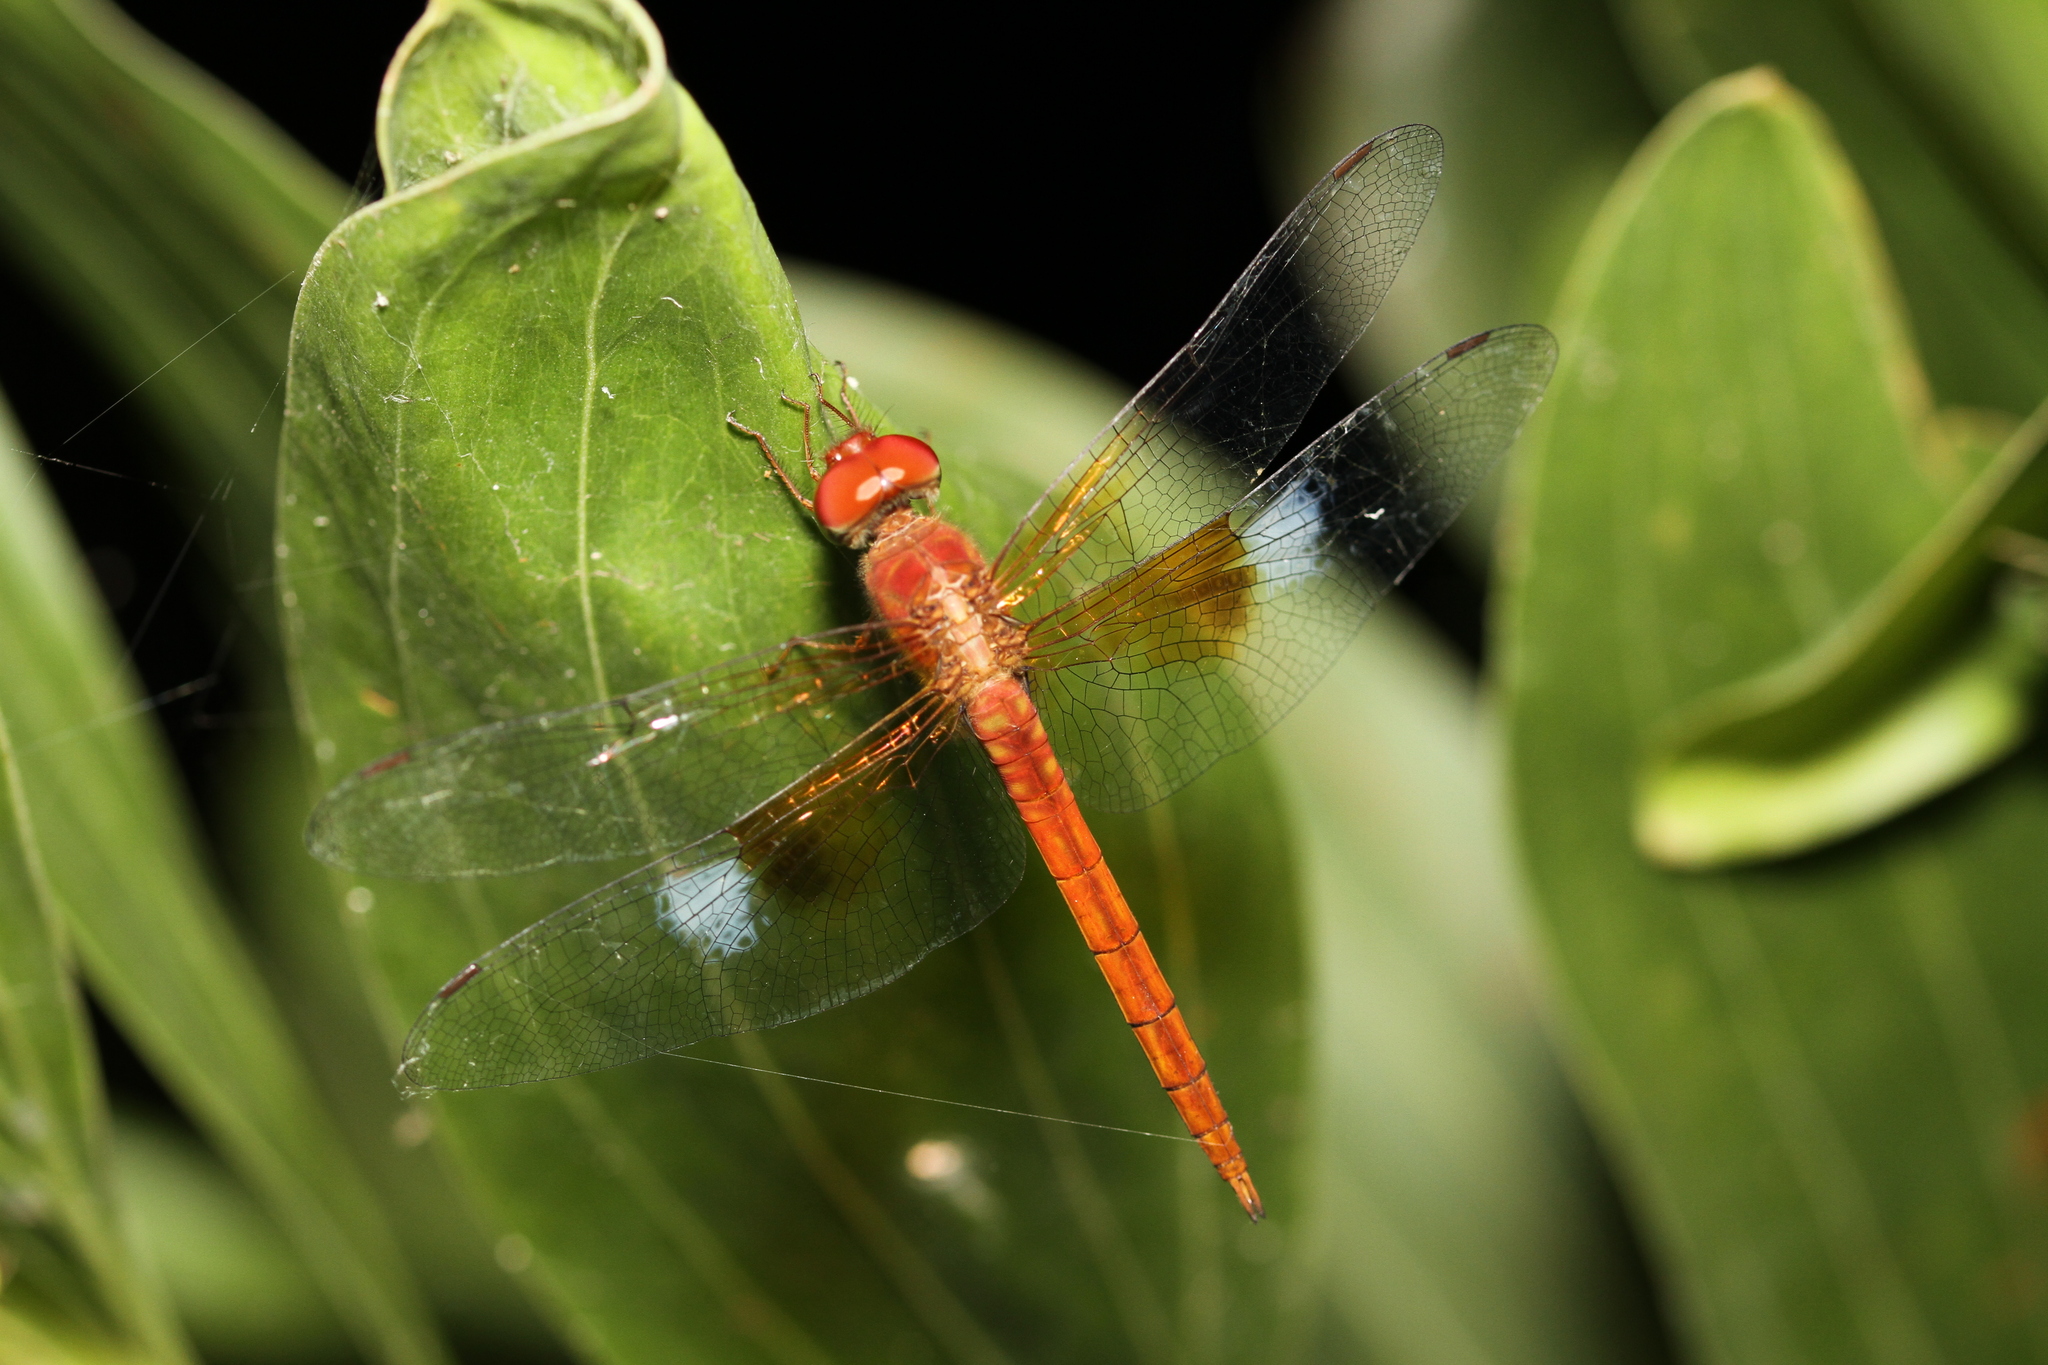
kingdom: Animalia
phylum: Arthropoda
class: Insecta
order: Odonata
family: Libellulidae
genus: Tholymis
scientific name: Tholymis tillarga
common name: Coral-tailed cloud wing
